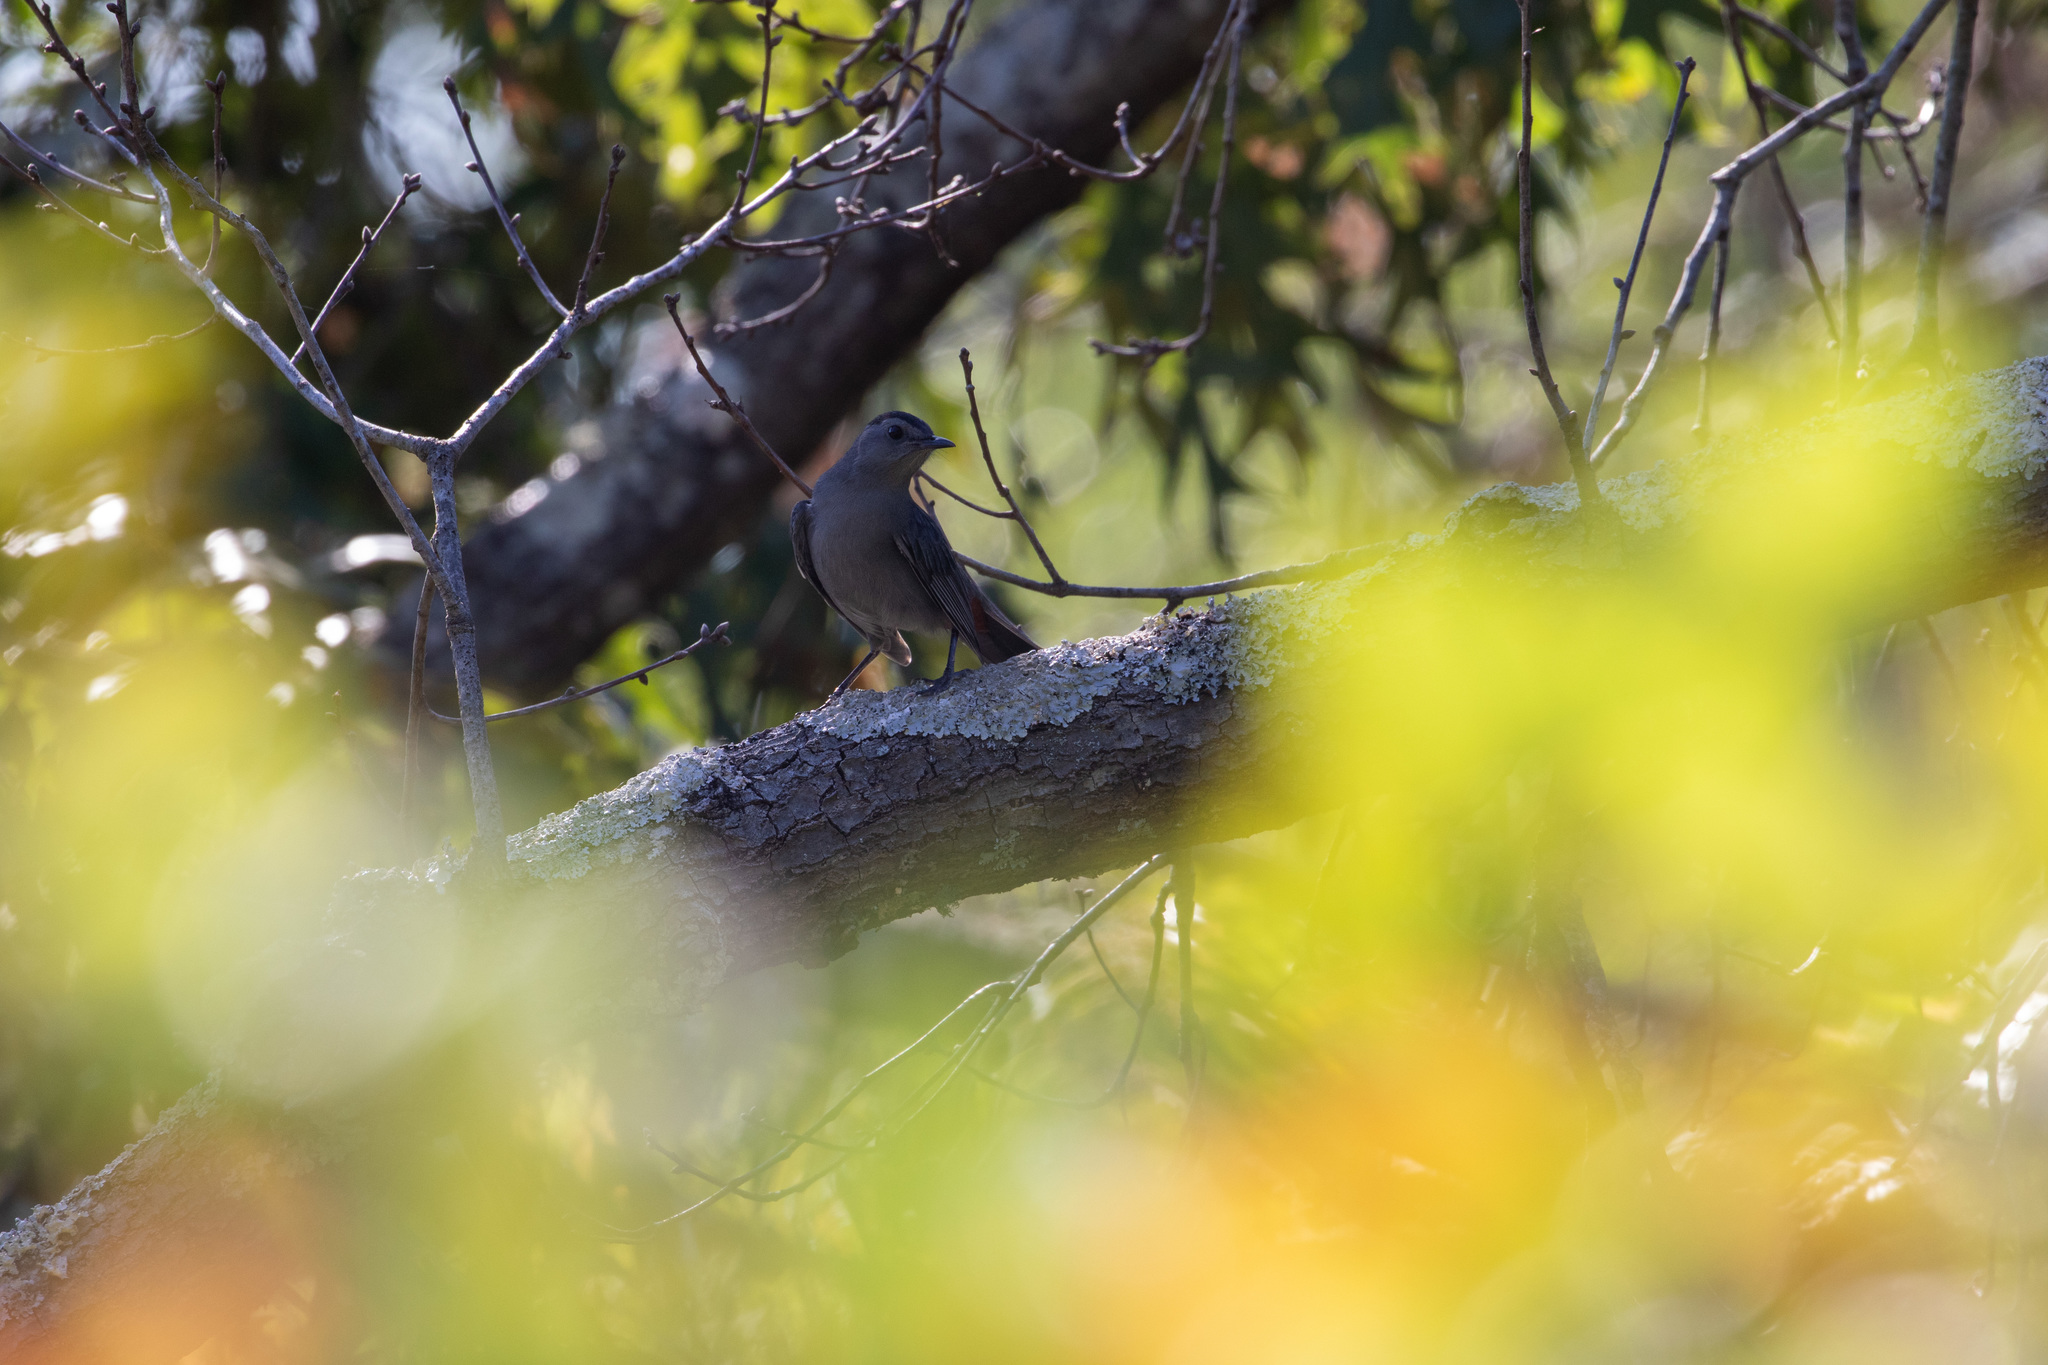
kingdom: Animalia
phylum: Chordata
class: Aves
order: Passeriformes
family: Mimidae
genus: Dumetella
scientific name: Dumetella carolinensis
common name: Gray catbird
